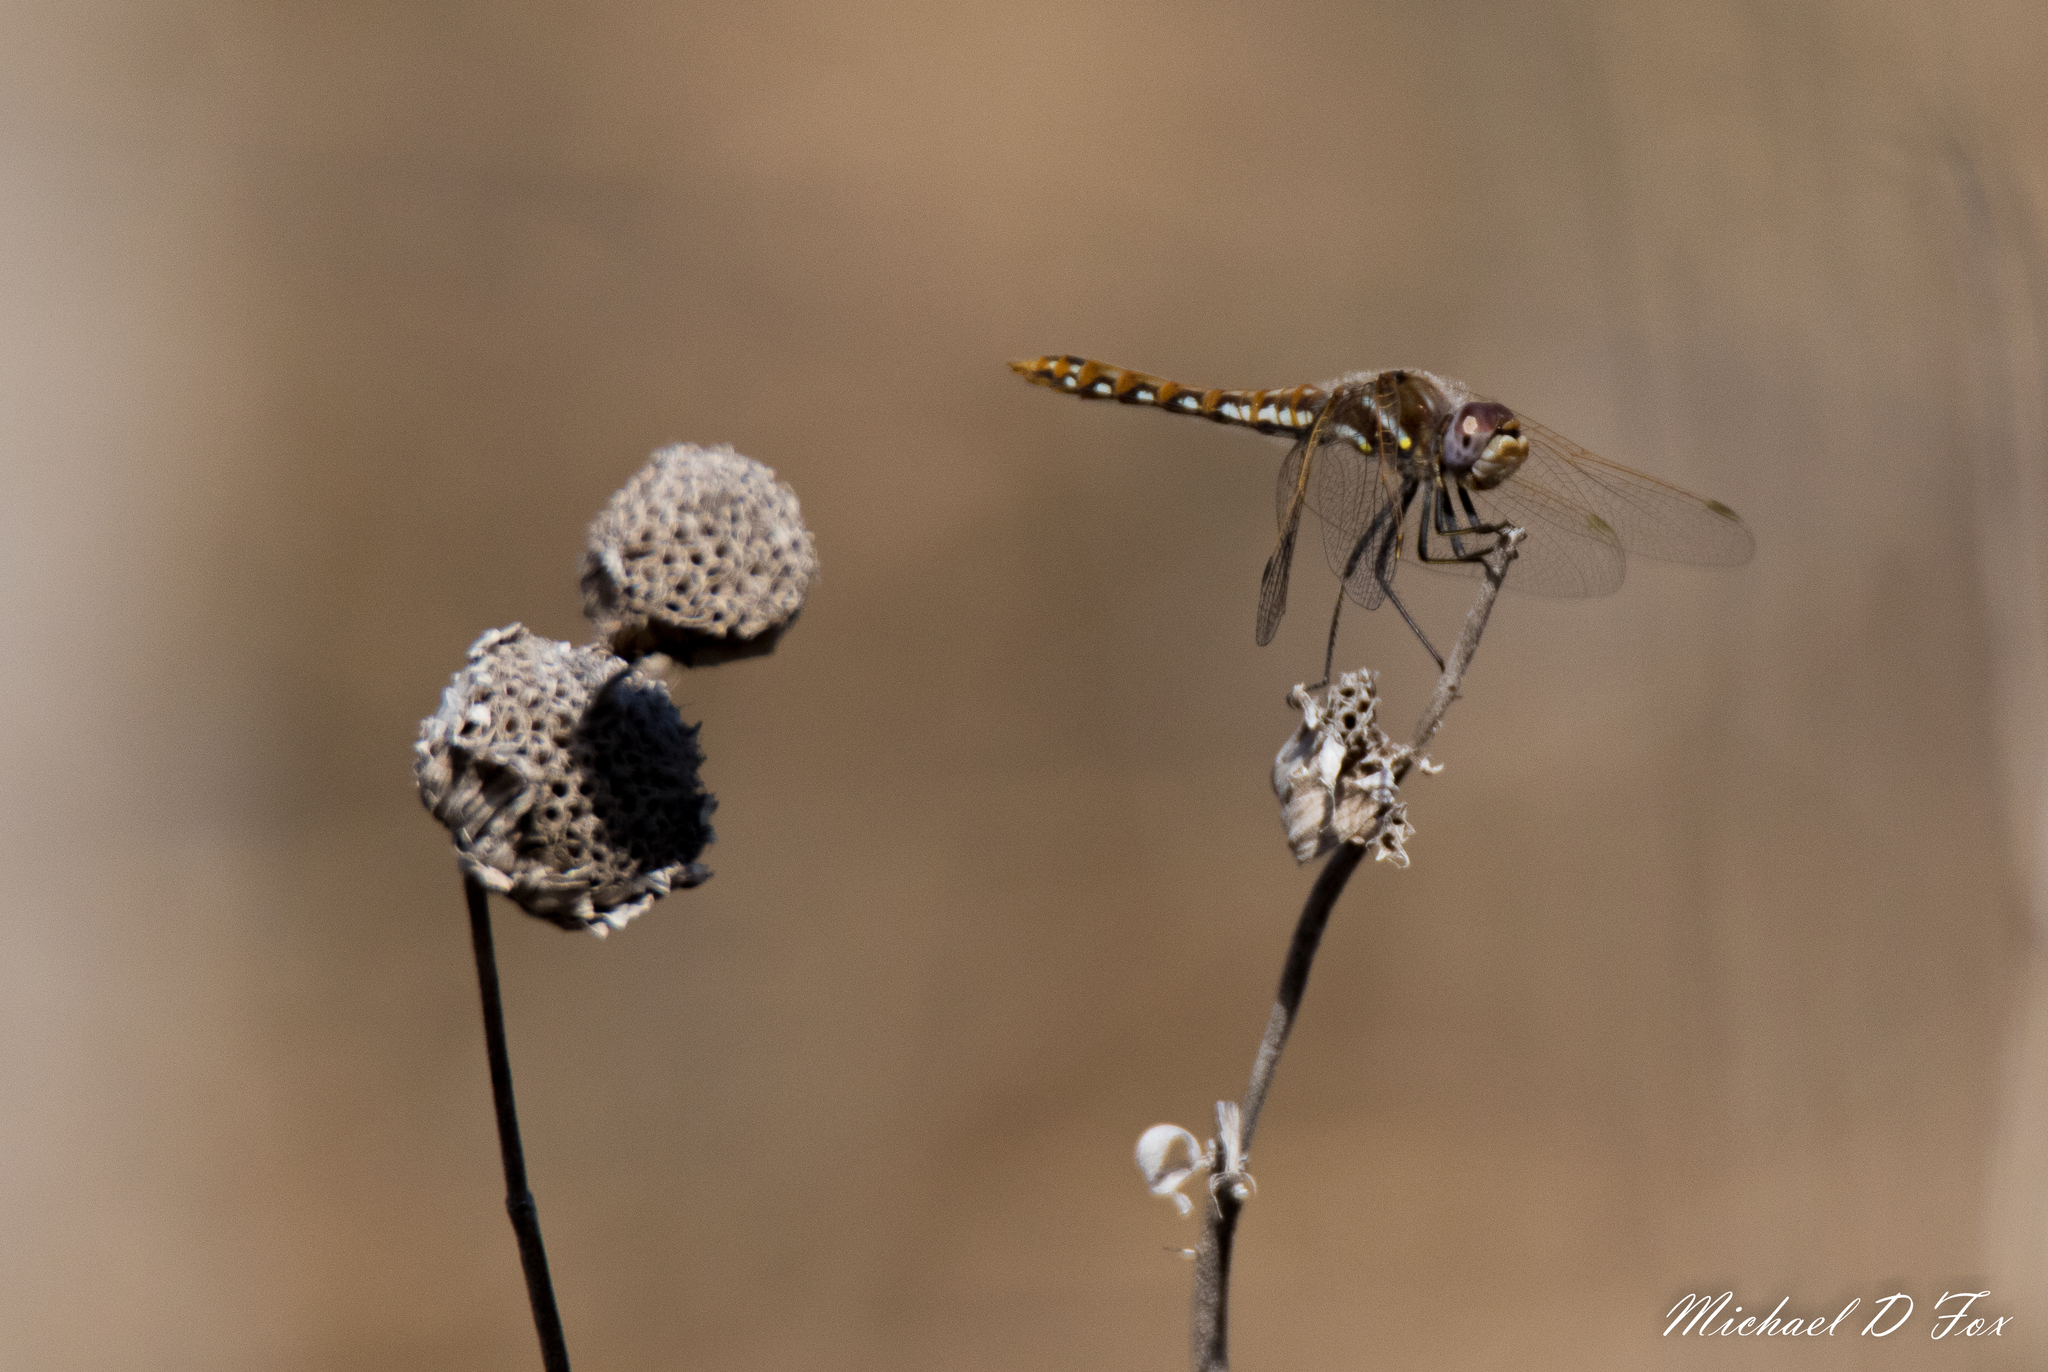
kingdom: Animalia
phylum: Arthropoda
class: Insecta
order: Odonata
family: Libellulidae
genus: Sympetrum
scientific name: Sympetrum corruptum
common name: Variegated meadowhawk
